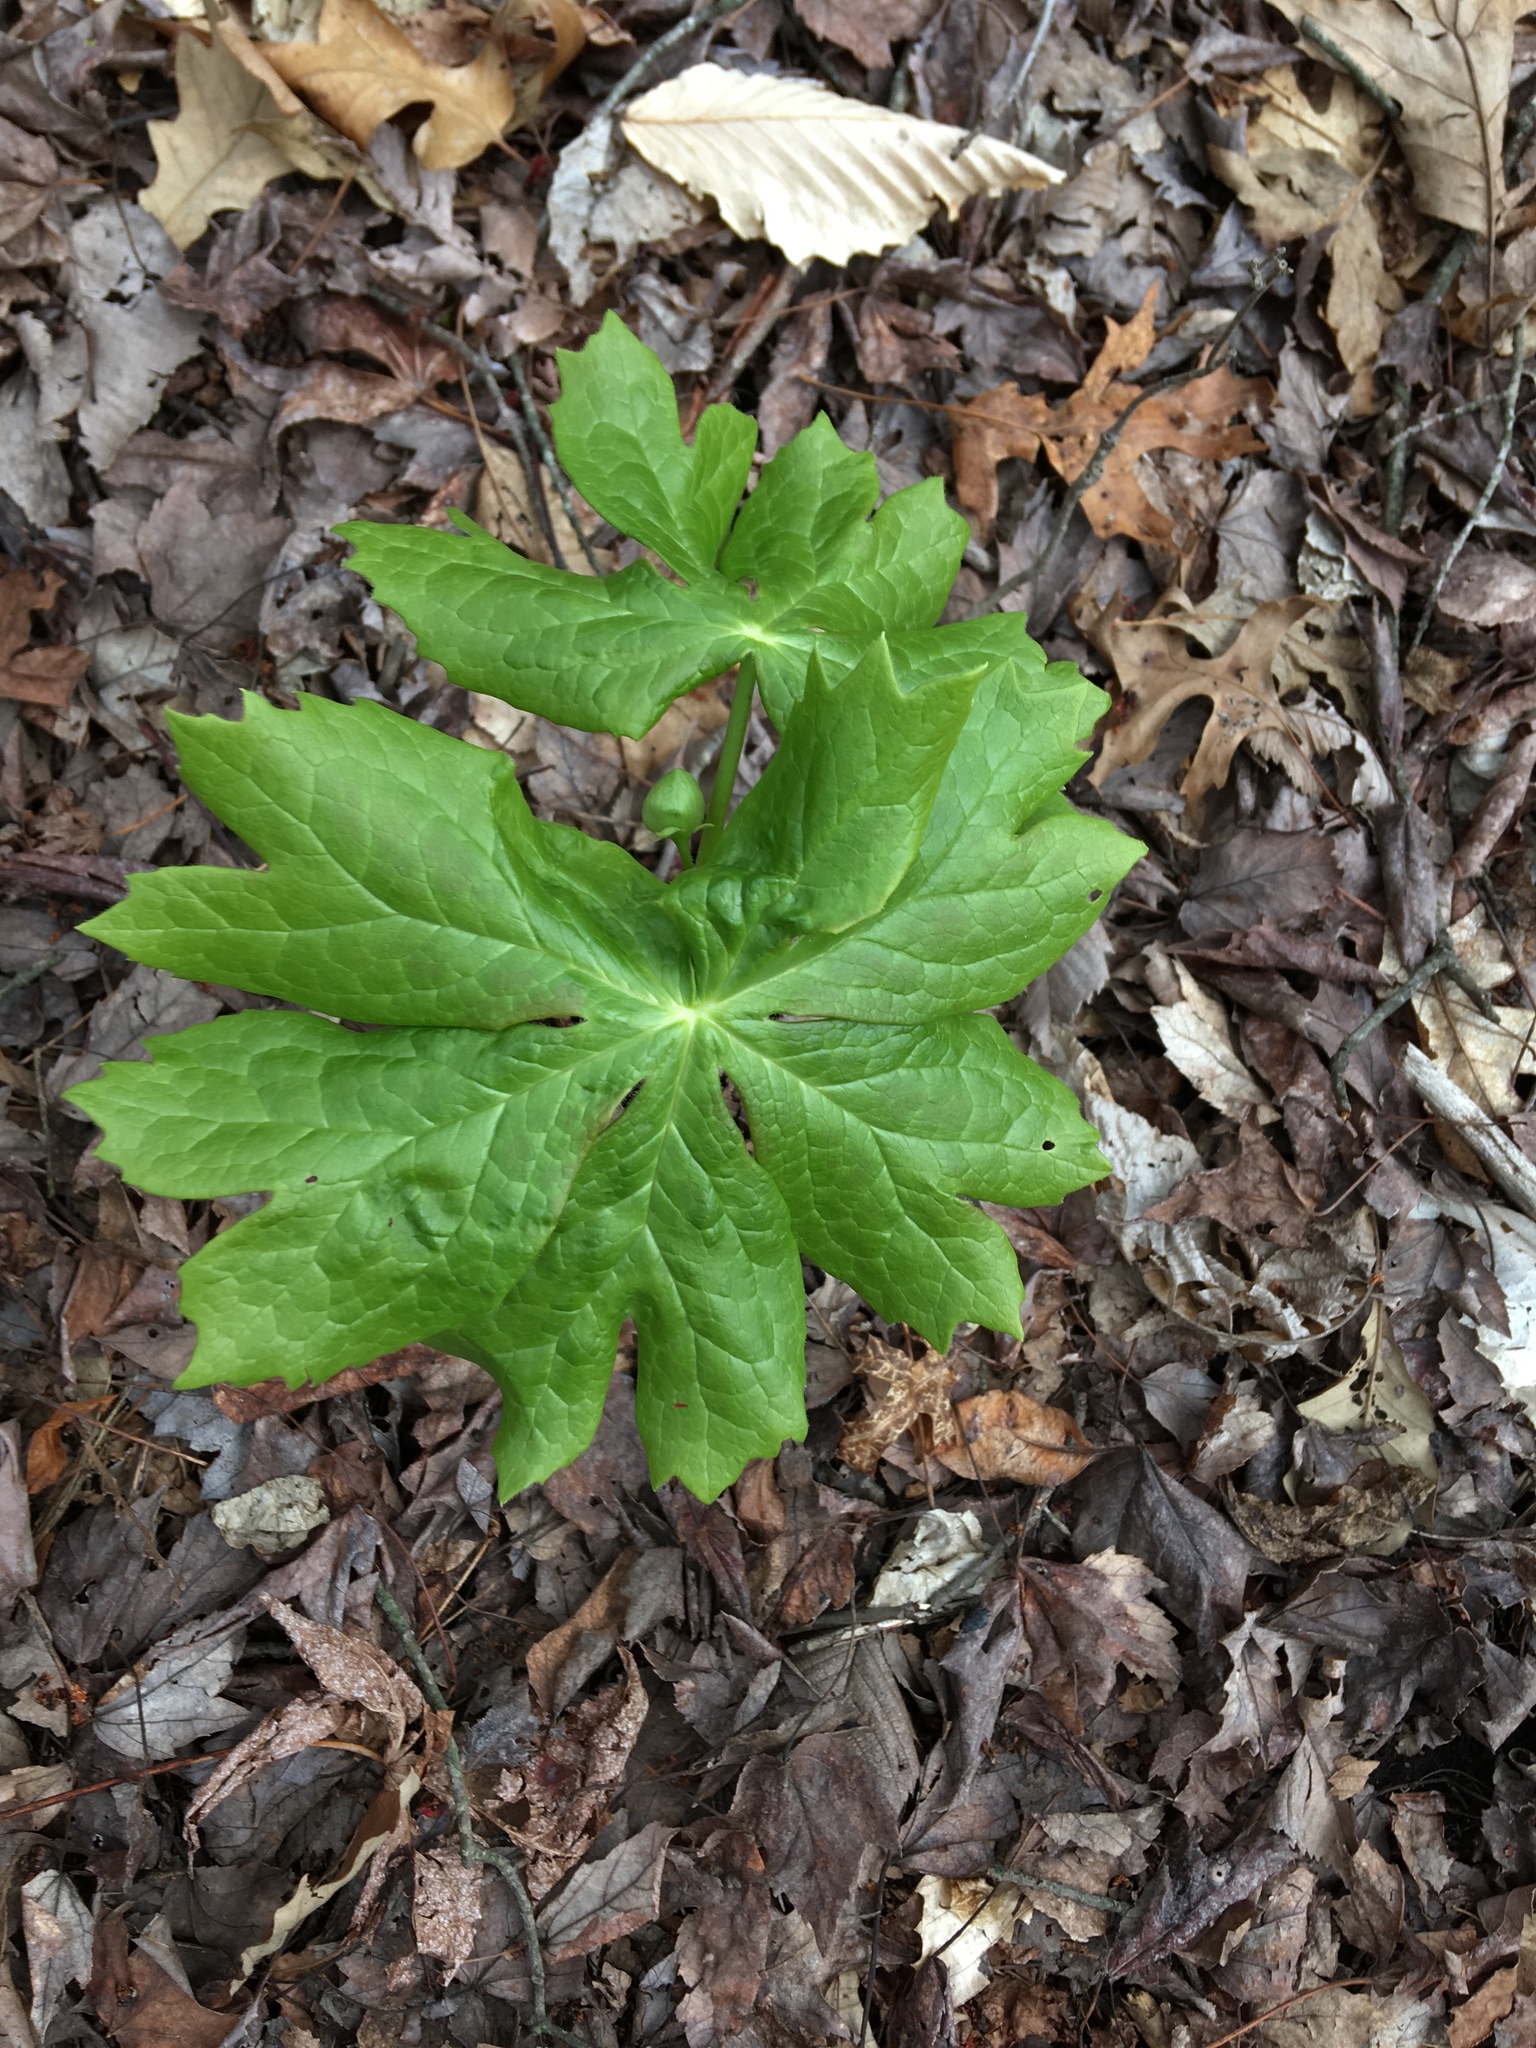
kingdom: Plantae
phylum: Tracheophyta
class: Magnoliopsida
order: Ranunculales
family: Berberidaceae
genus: Podophyllum
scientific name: Podophyllum peltatum
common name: Wild mandrake
